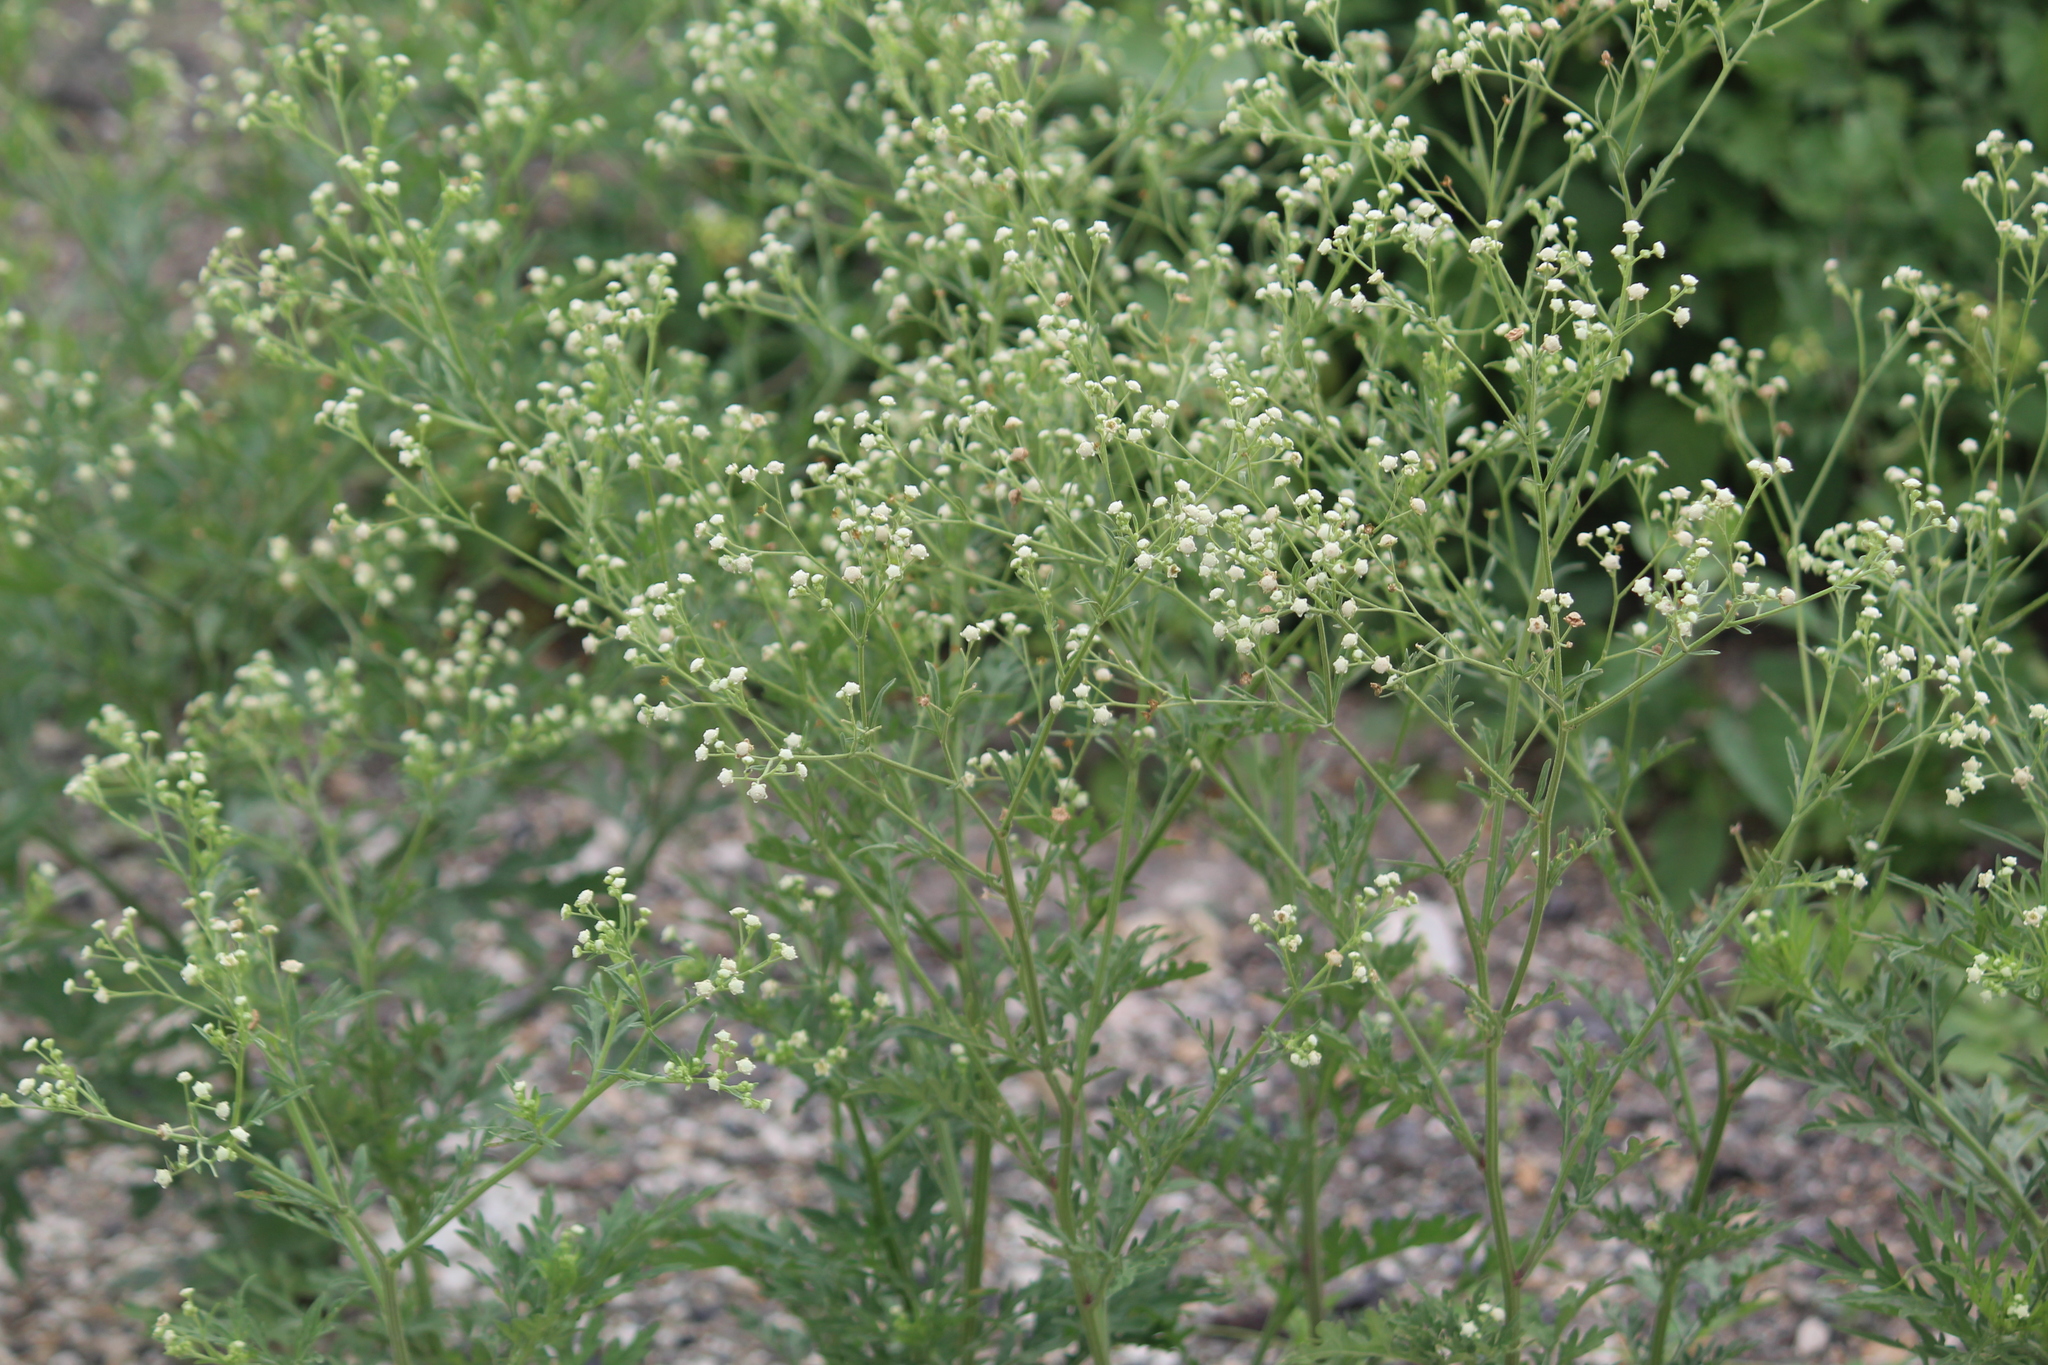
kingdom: Plantae
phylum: Tracheophyta
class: Magnoliopsida
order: Asterales
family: Asteraceae
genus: Parthenium
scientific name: Parthenium hysterophorus
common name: Santa maria feverfew
